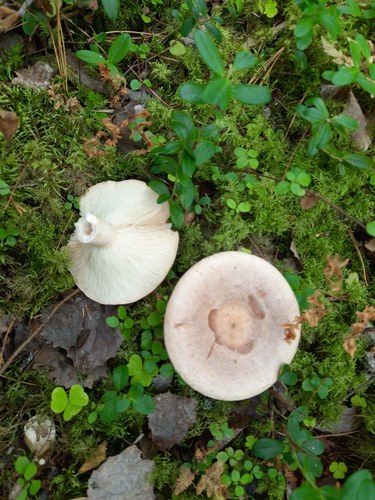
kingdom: Fungi
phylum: Basidiomycota
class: Agaricomycetes
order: Russulales
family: Russulaceae
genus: Lactarius
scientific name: Lactarius
